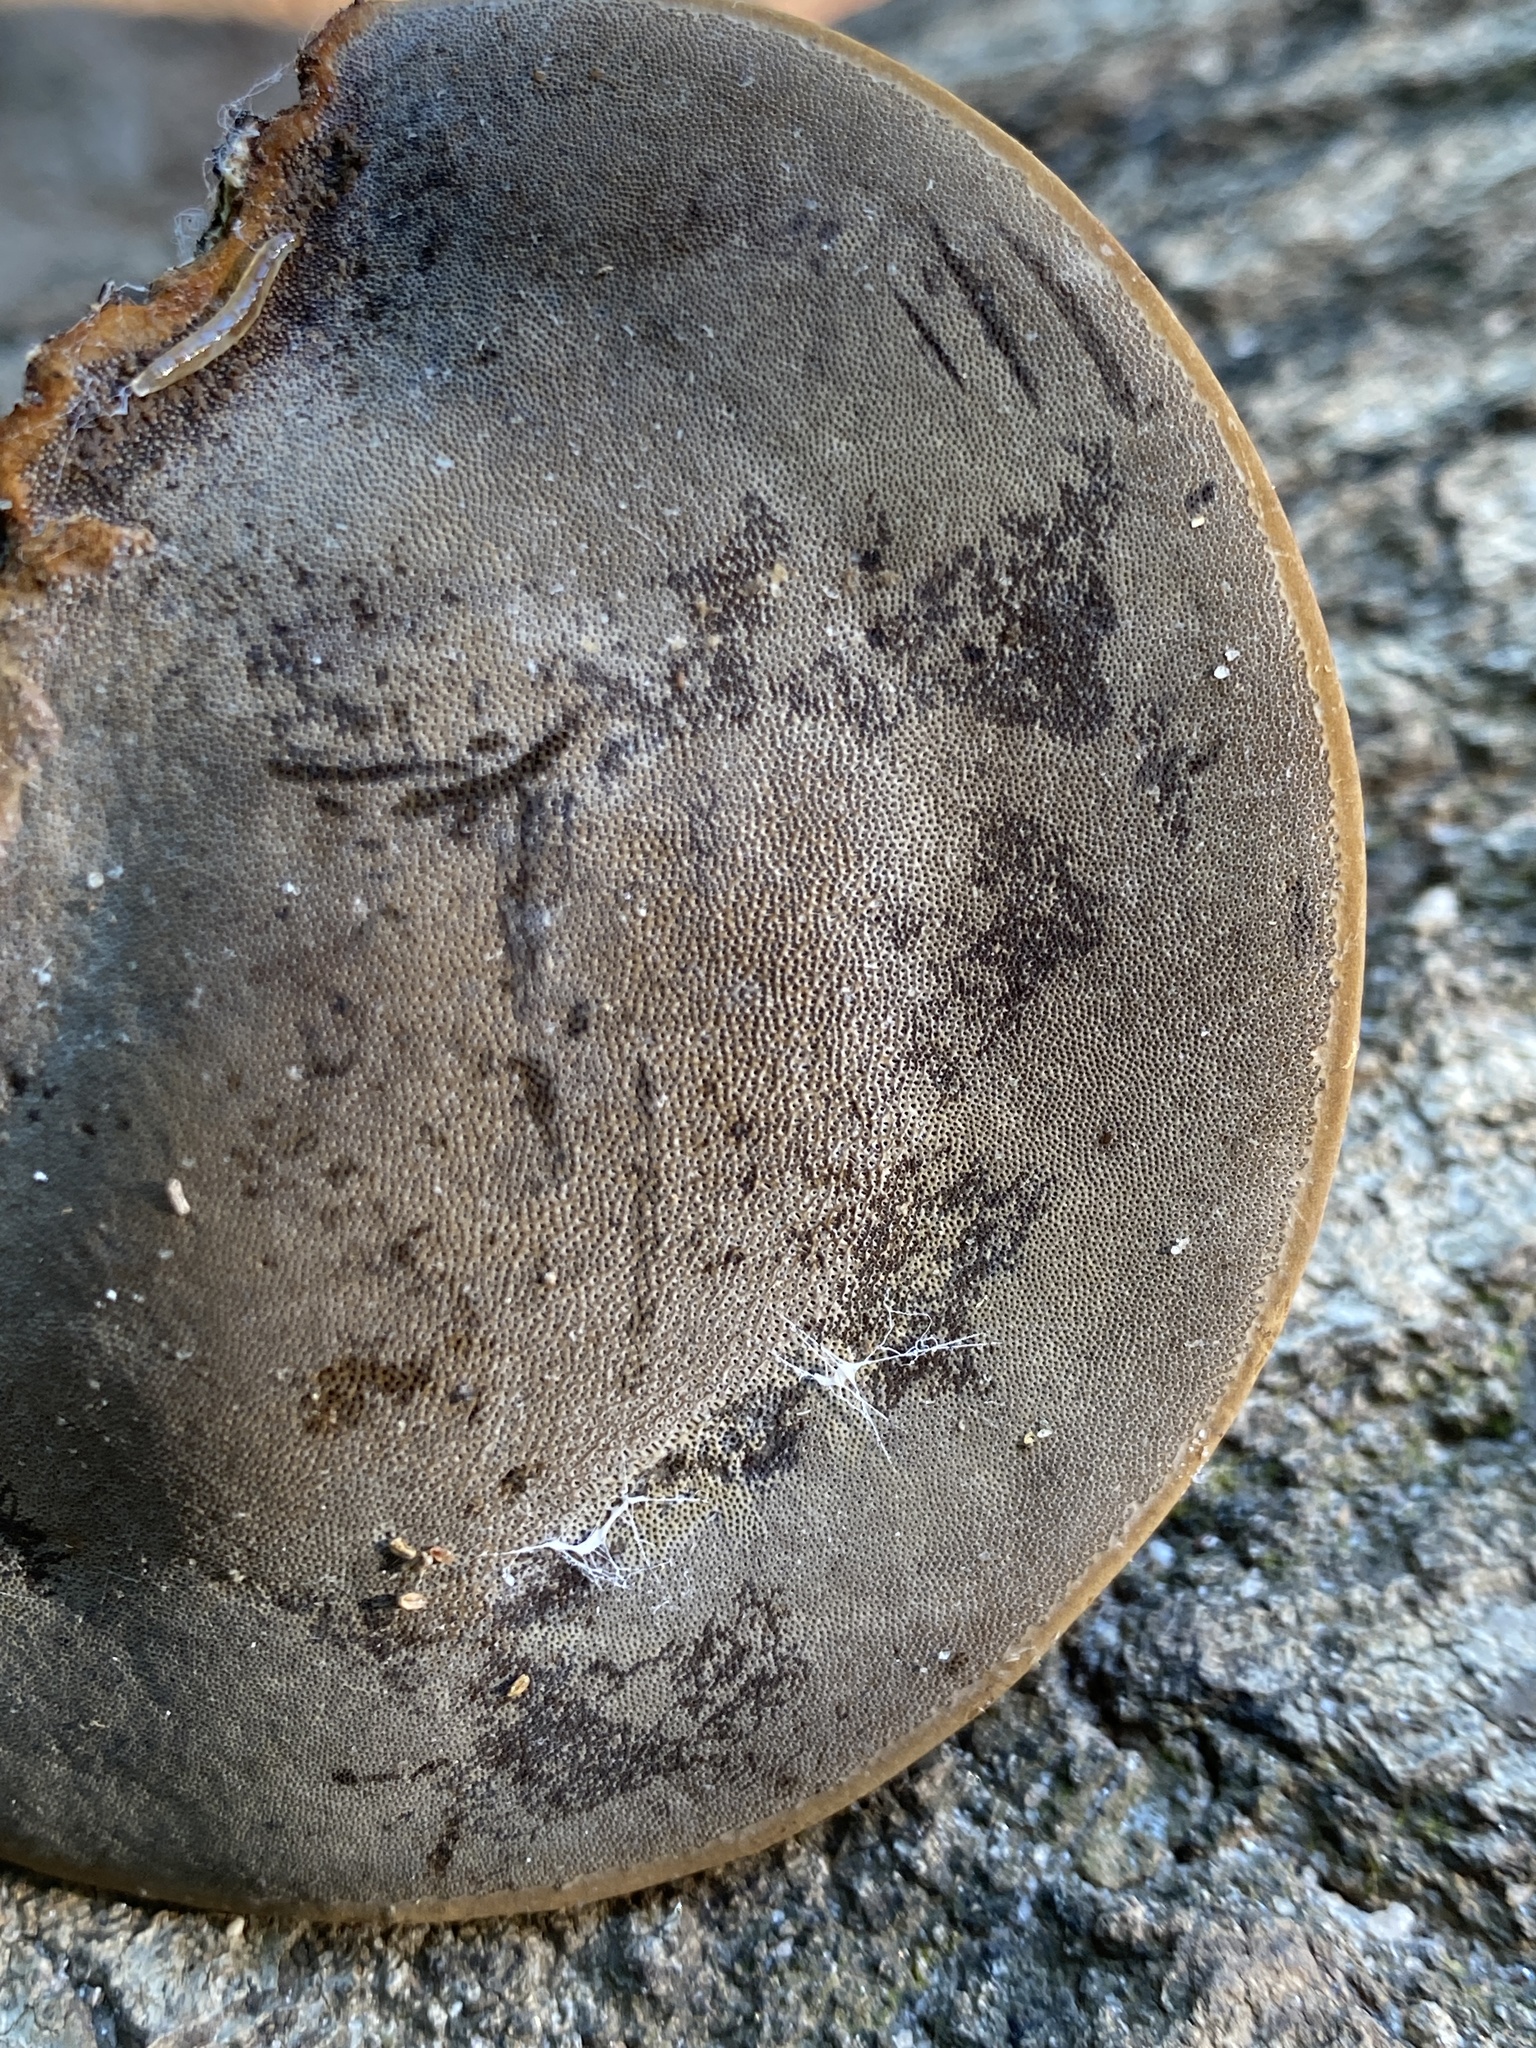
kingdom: Fungi
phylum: Basidiomycota
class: Agaricomycetes
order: Polyporales
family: Polyporaceae
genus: Fomes
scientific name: Fomes fasciatus
